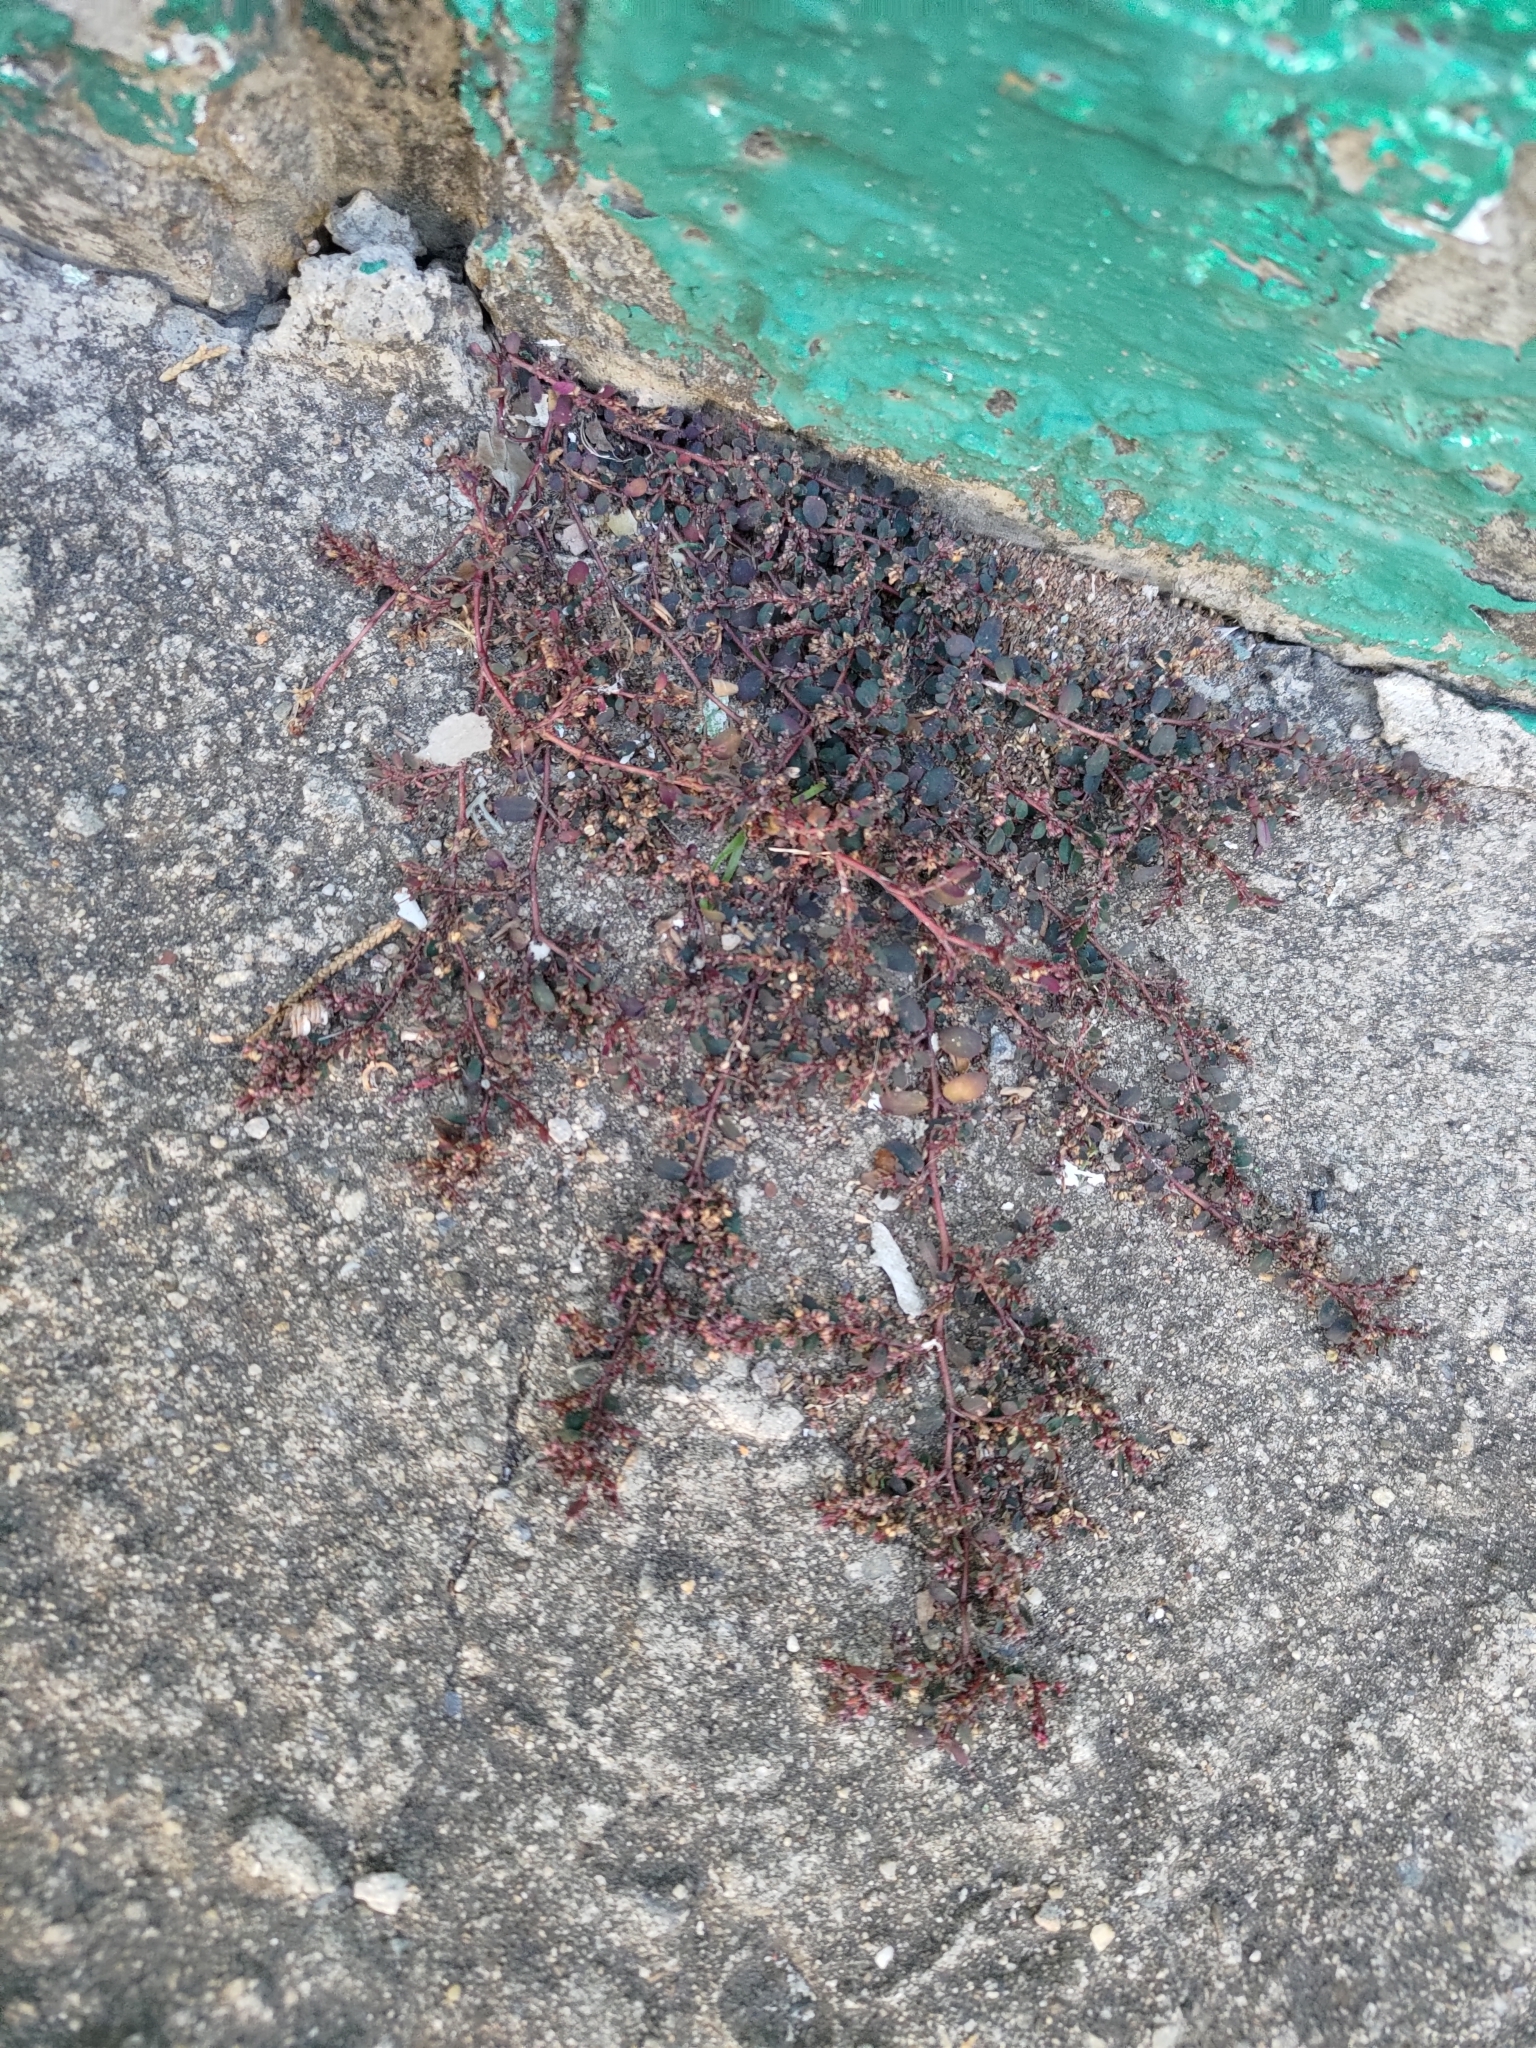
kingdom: Plantae
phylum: Tracheophyta
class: Magnoliopsida
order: Malpighiales
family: Euphorbiaceae
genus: Euphorbia
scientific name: Euphorbia prostrata
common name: Prostrate sandmat
